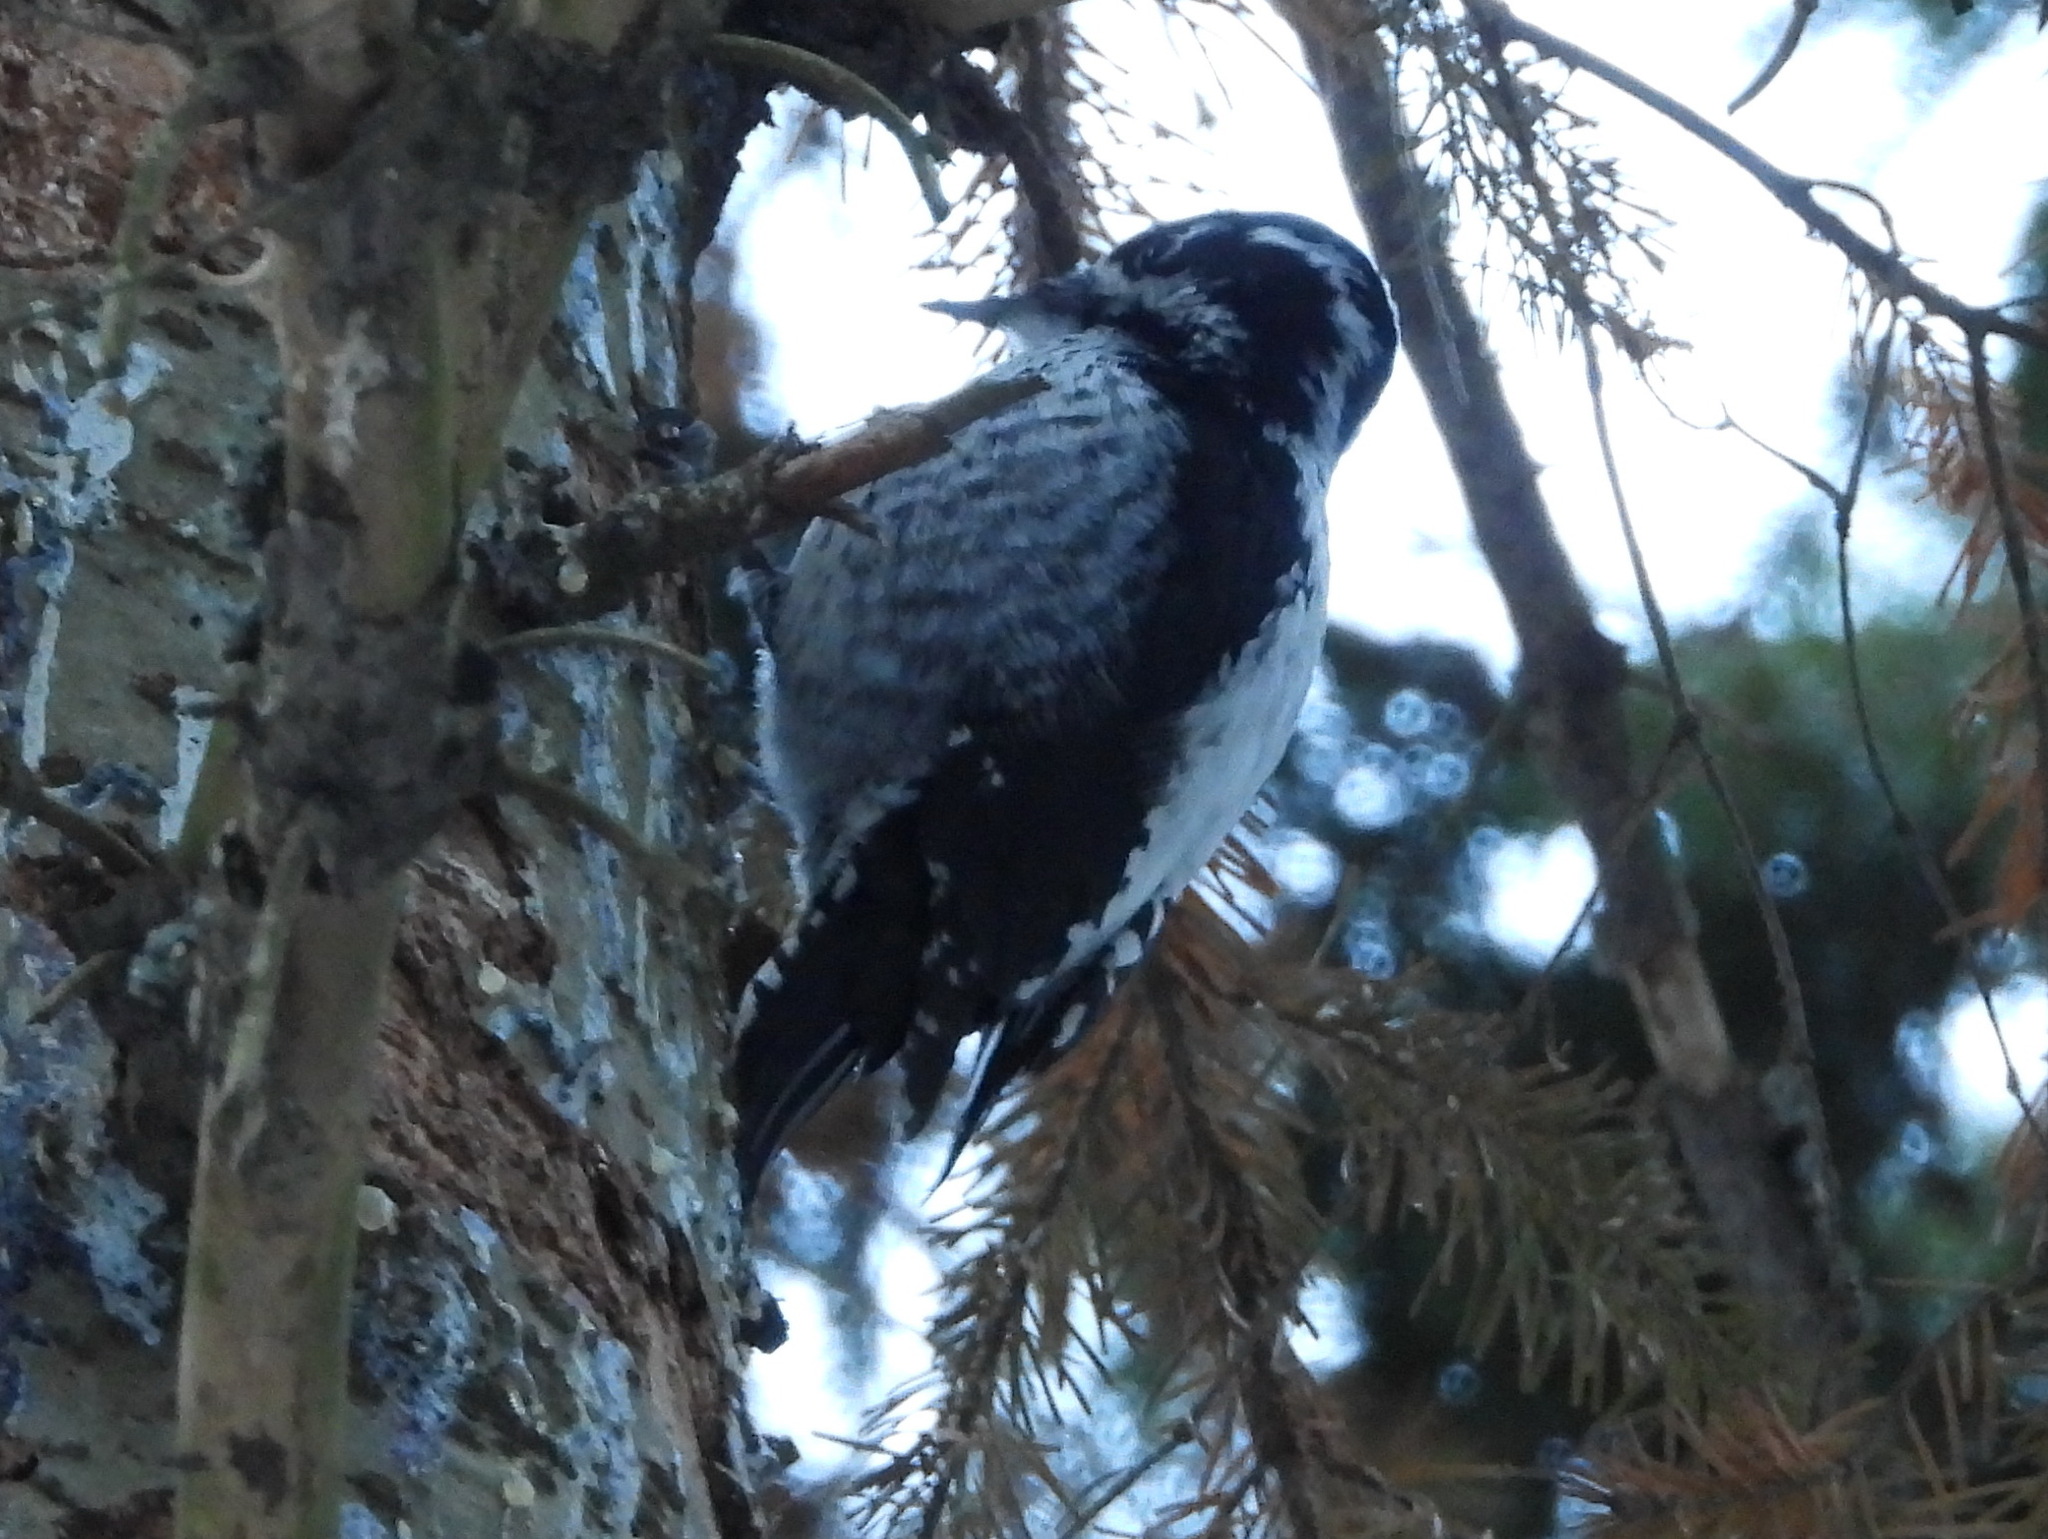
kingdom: Animalia
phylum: Chordata
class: Aves
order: Piciformes
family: Picidae
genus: Picoides
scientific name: Picoides tridactylus
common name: Eurasian three-toed woodpecker
